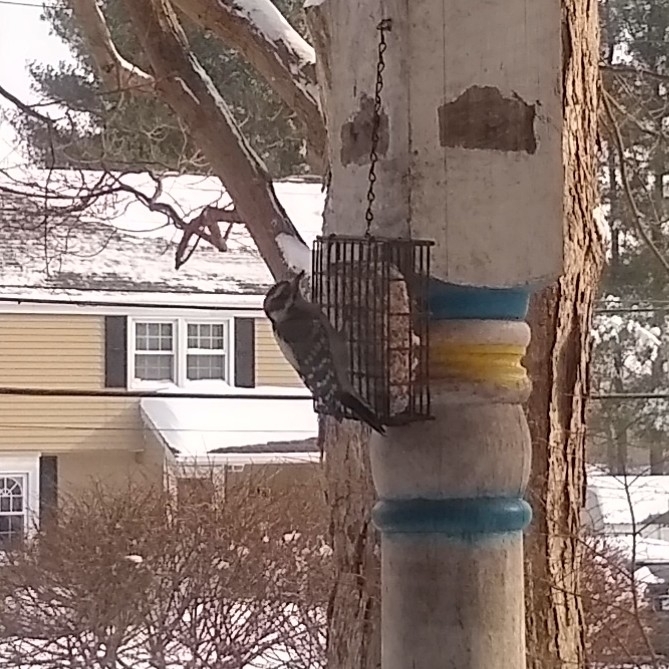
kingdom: Animalia
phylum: Chordata
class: Aves
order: Piciformes
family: Picidae
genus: Dryobates
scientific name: Dryobates pubescens
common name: Downy woodpecker
